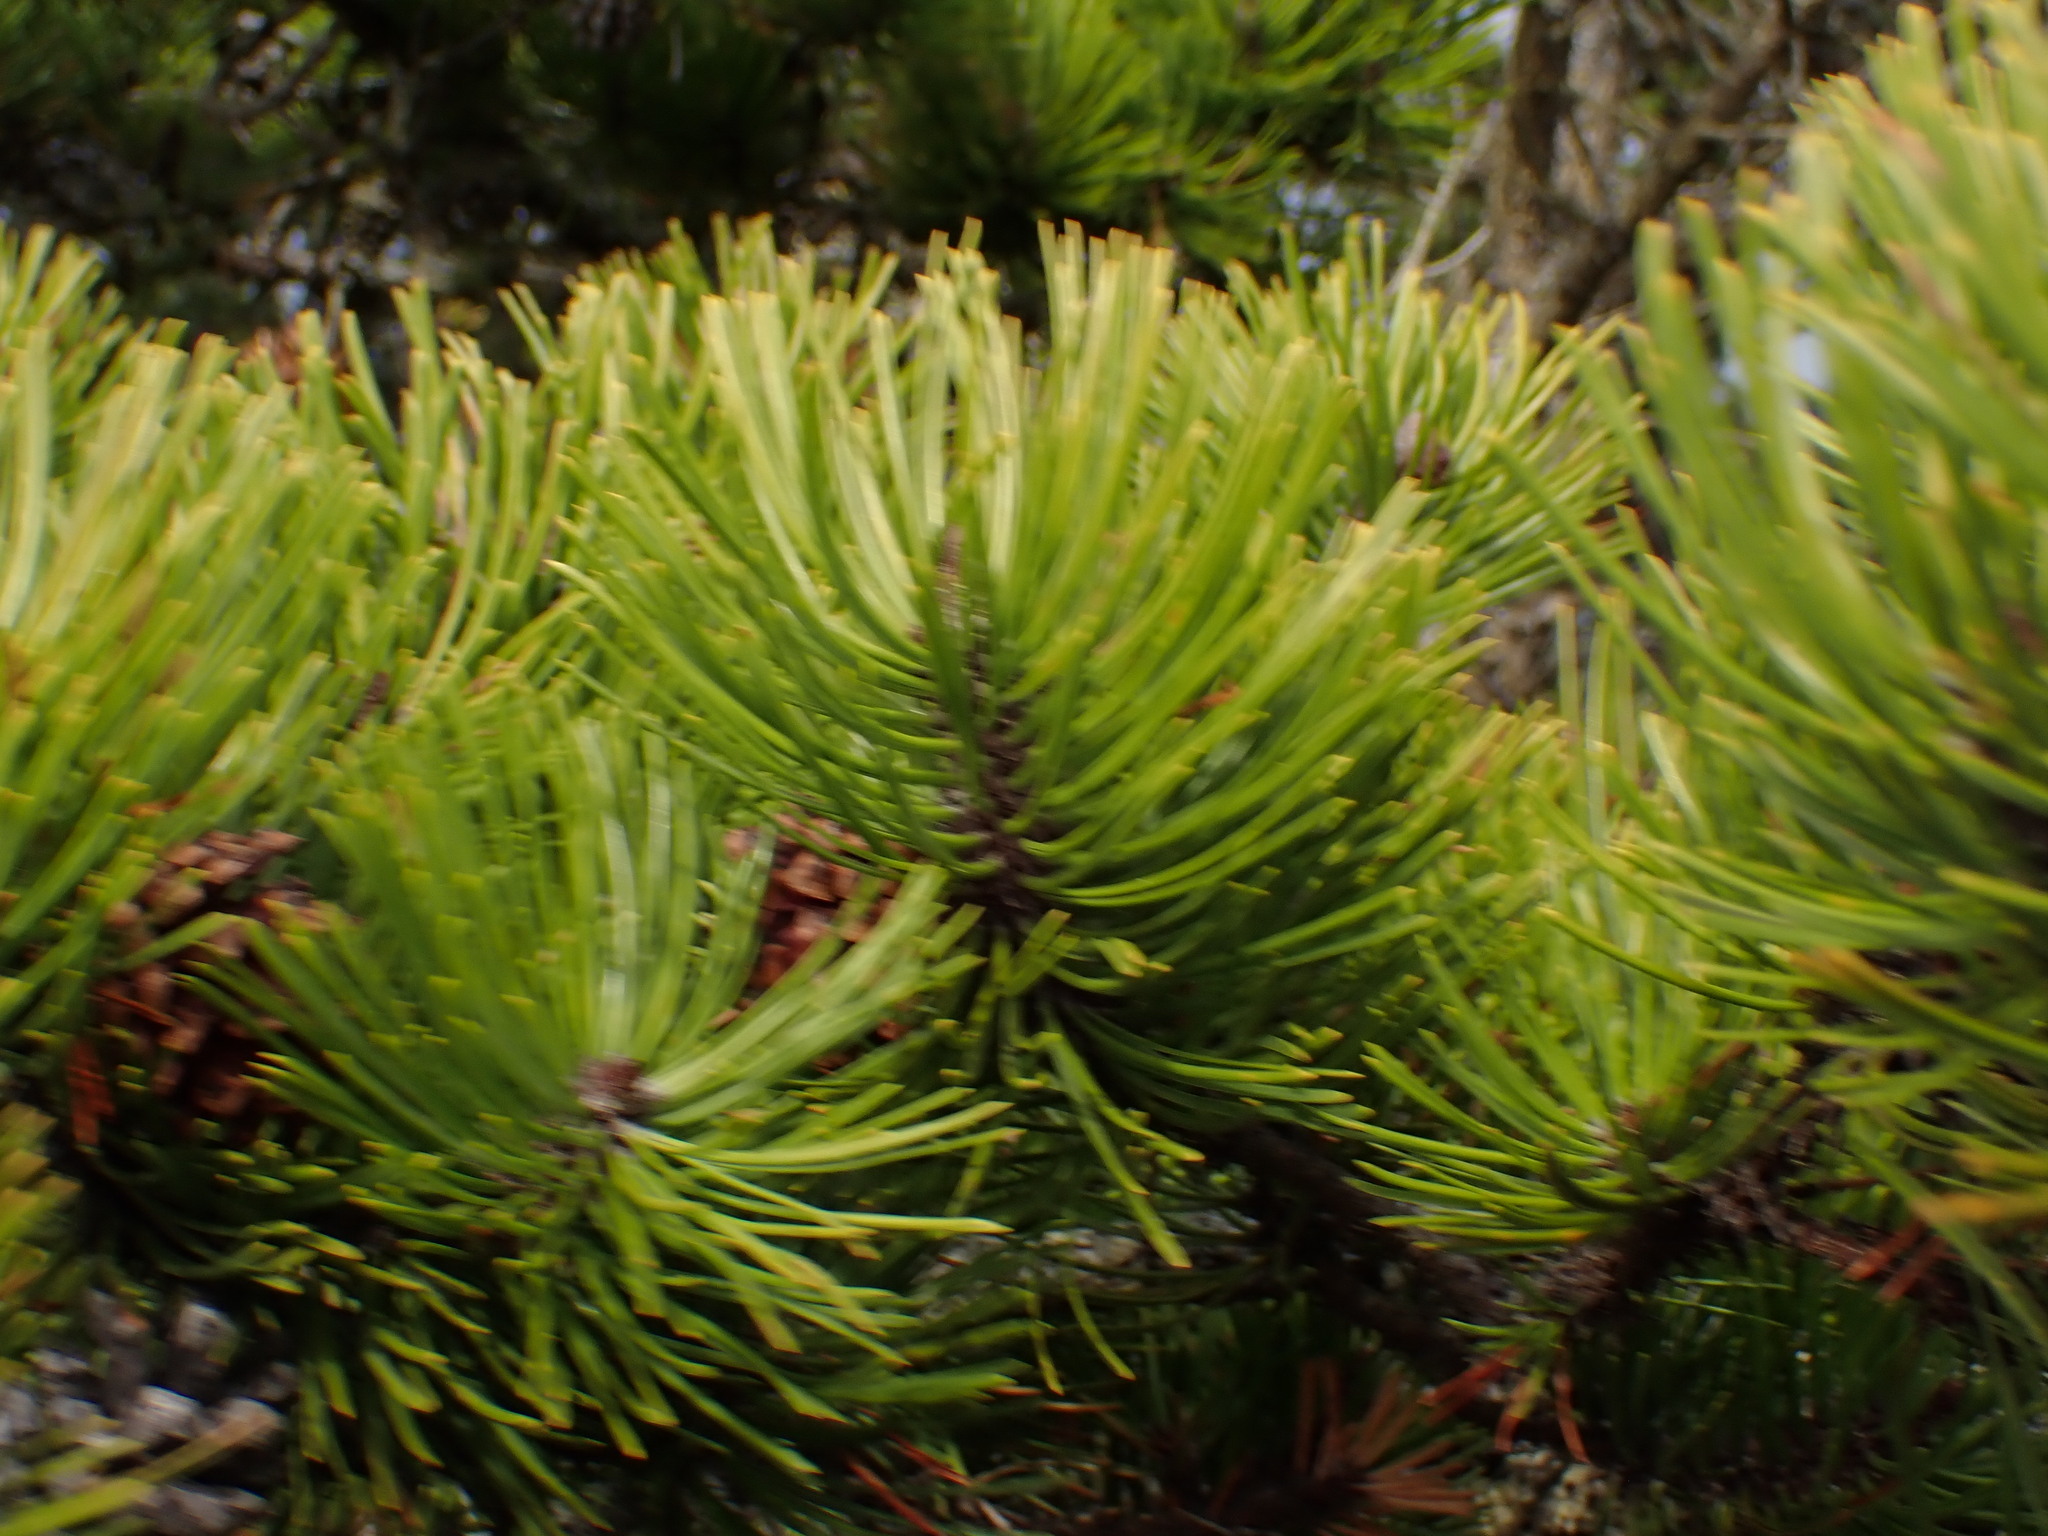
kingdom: Plantae
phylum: Tracheophyta
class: Pinopsida
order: Pinales
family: Pinaceae
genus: Pinus
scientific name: Pinus contorta
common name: Lodgepole pine
